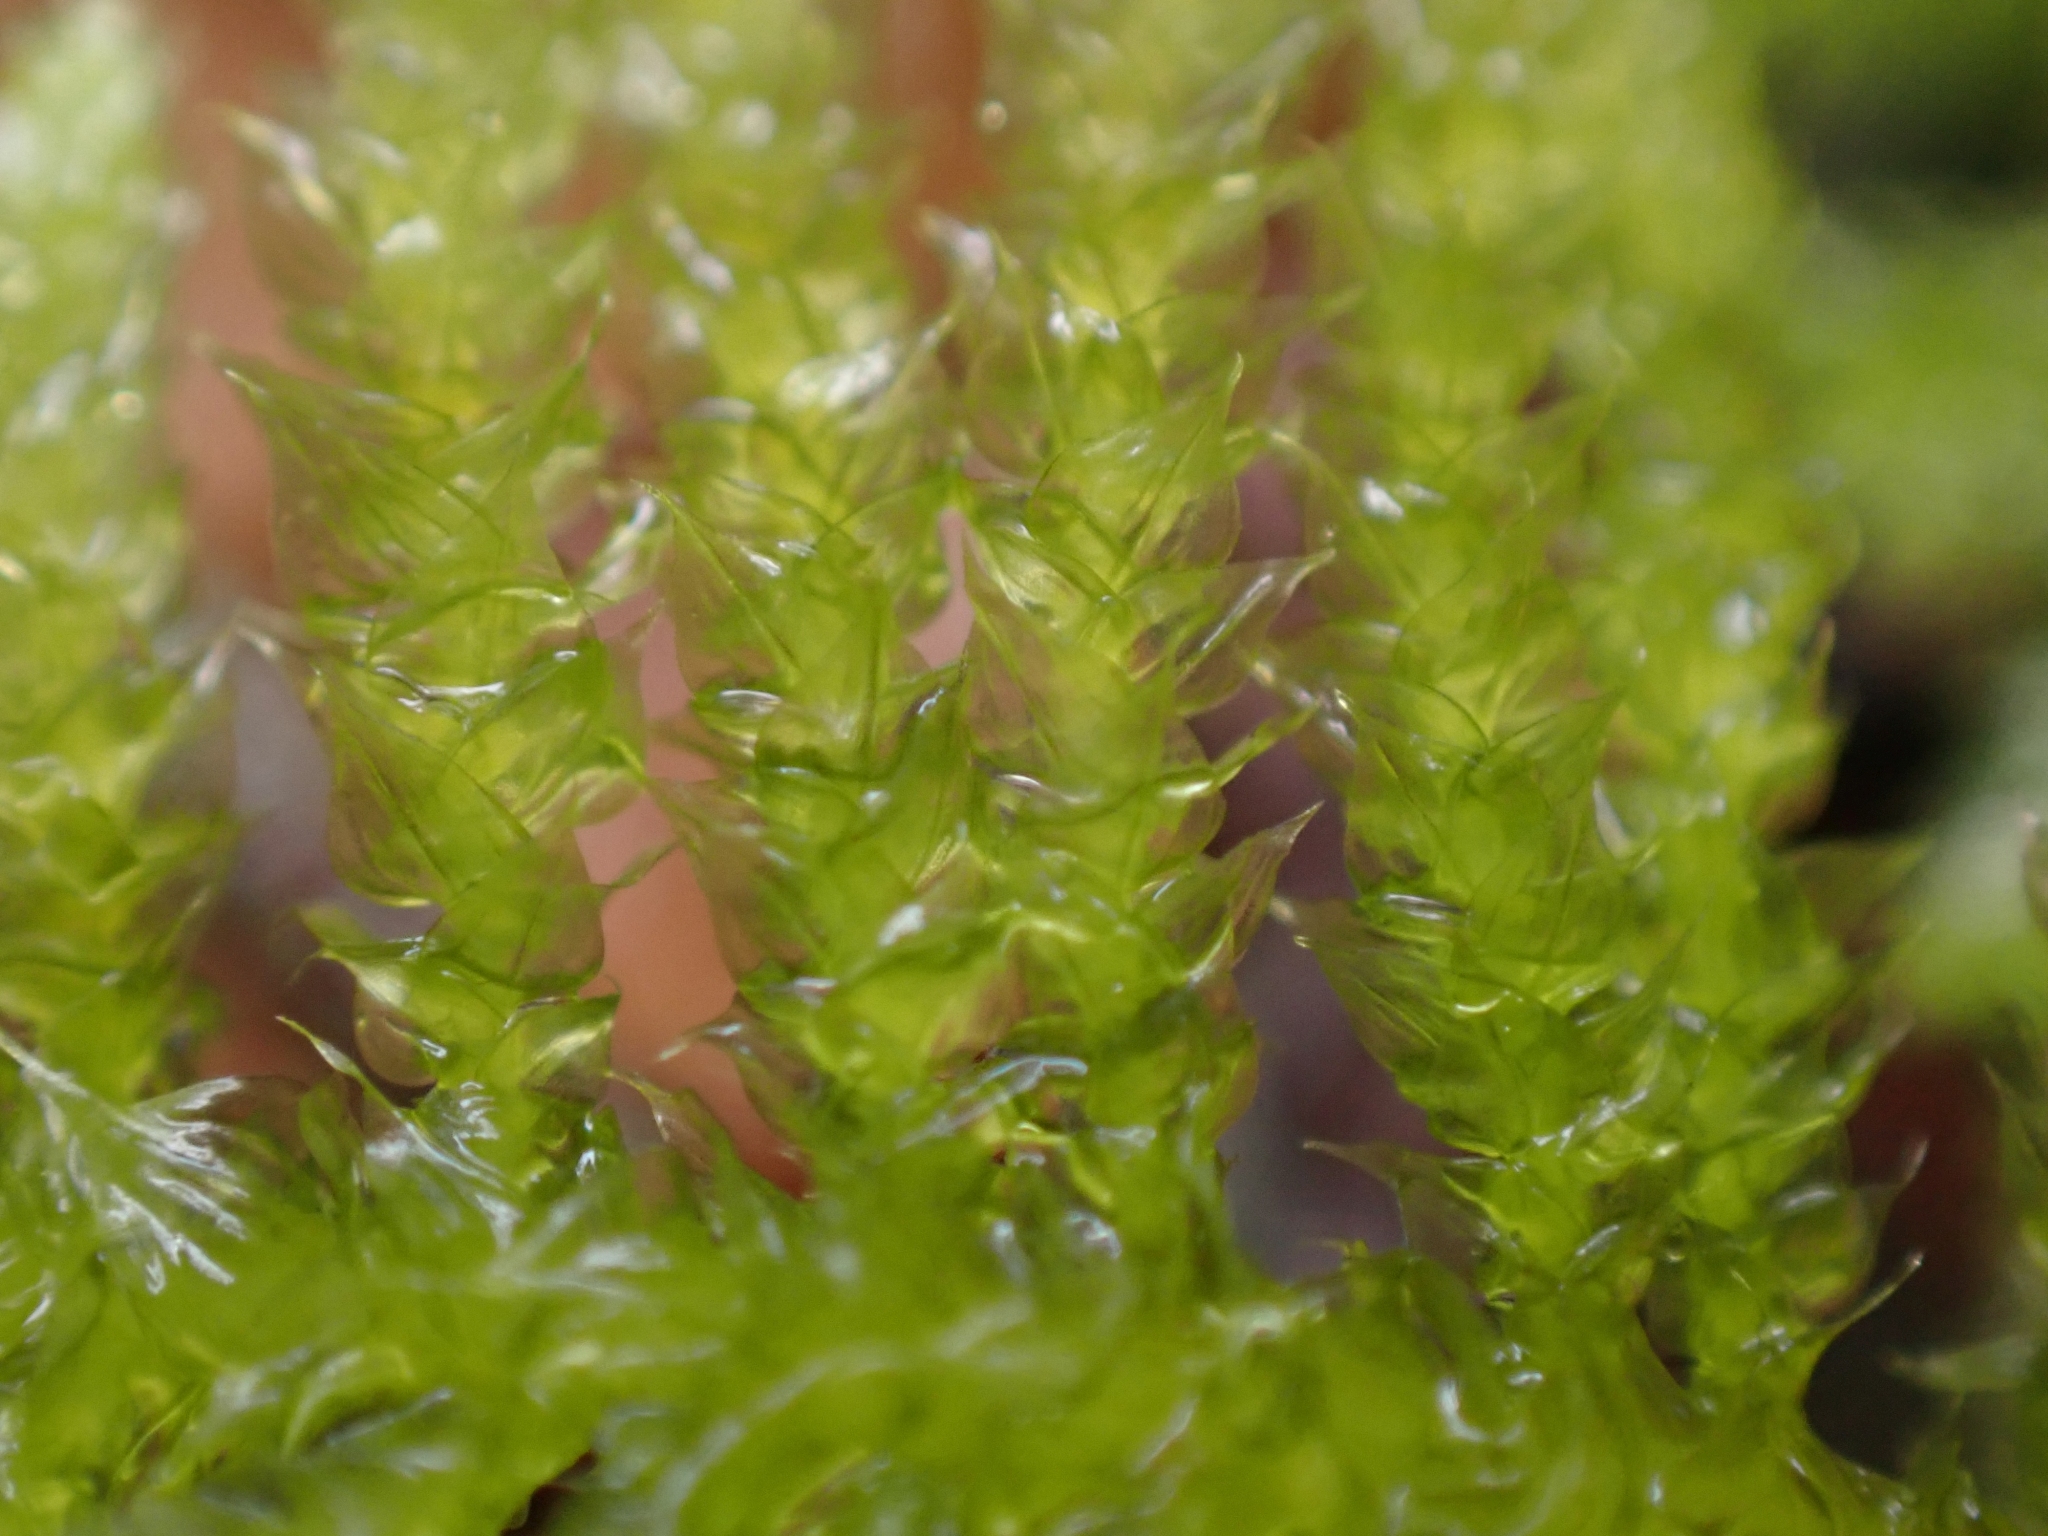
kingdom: Plantae
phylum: Bryophyta
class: Bryopsida
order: Hypnales
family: Brachytheciaceae
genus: Kindbergia
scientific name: Kindbergia oregana
